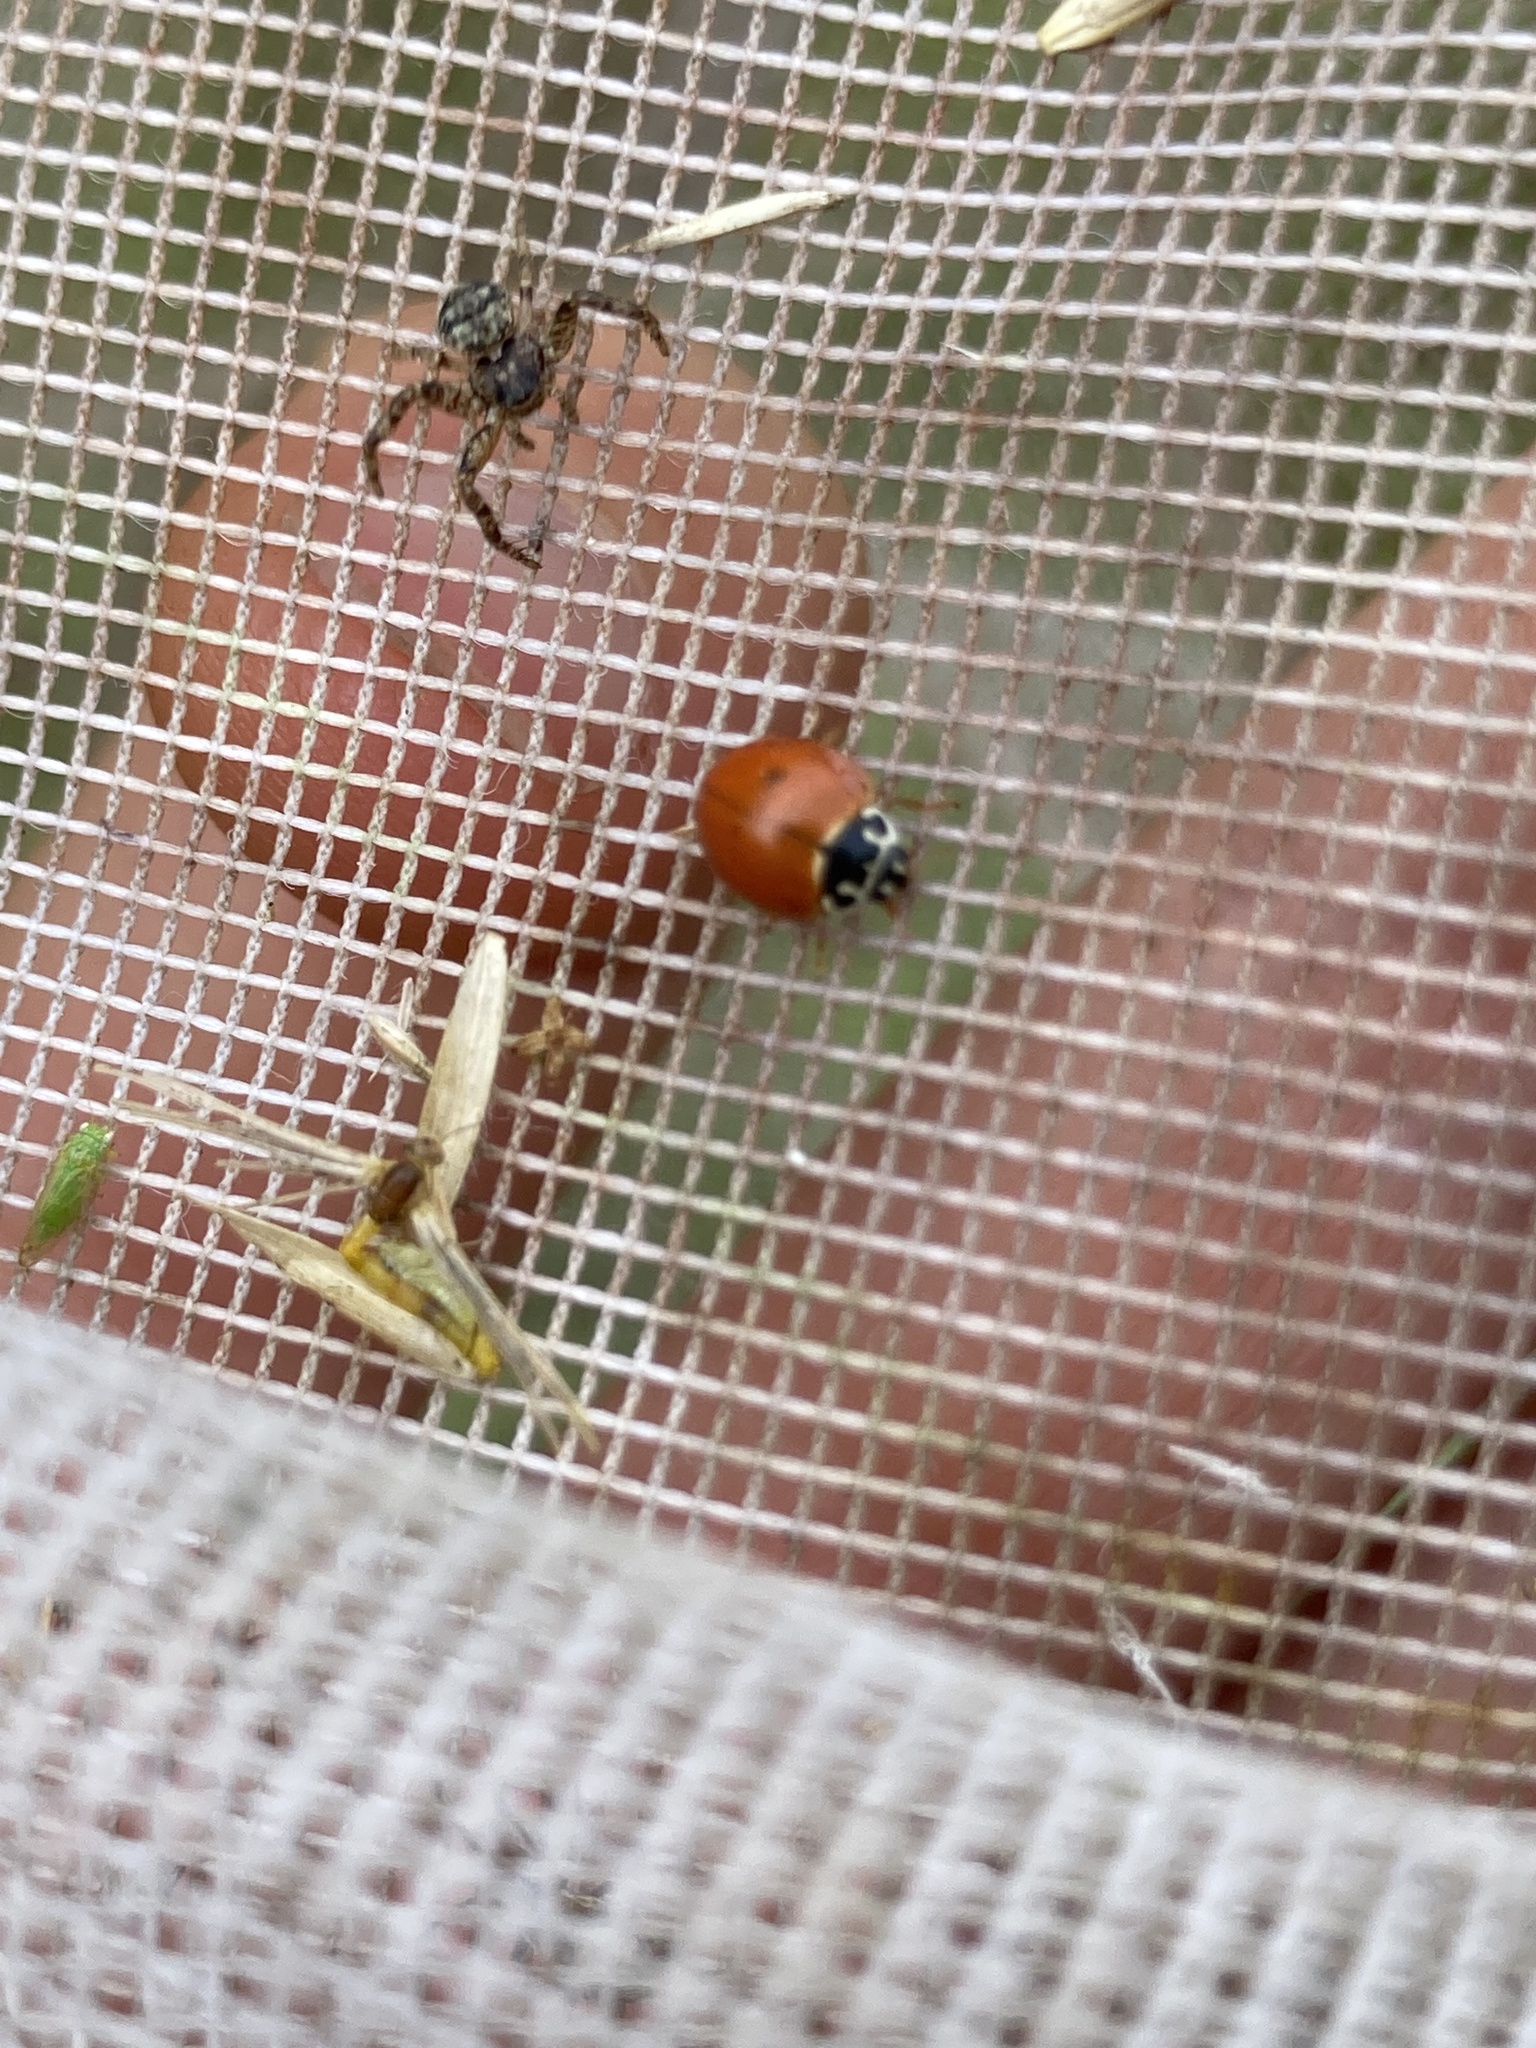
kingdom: Animalia
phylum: Arthropoda
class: Insecta
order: Coleoptera
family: Coccinellidae
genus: Cycloneda
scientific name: Cycloneda munda
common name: Polished lady beetle
